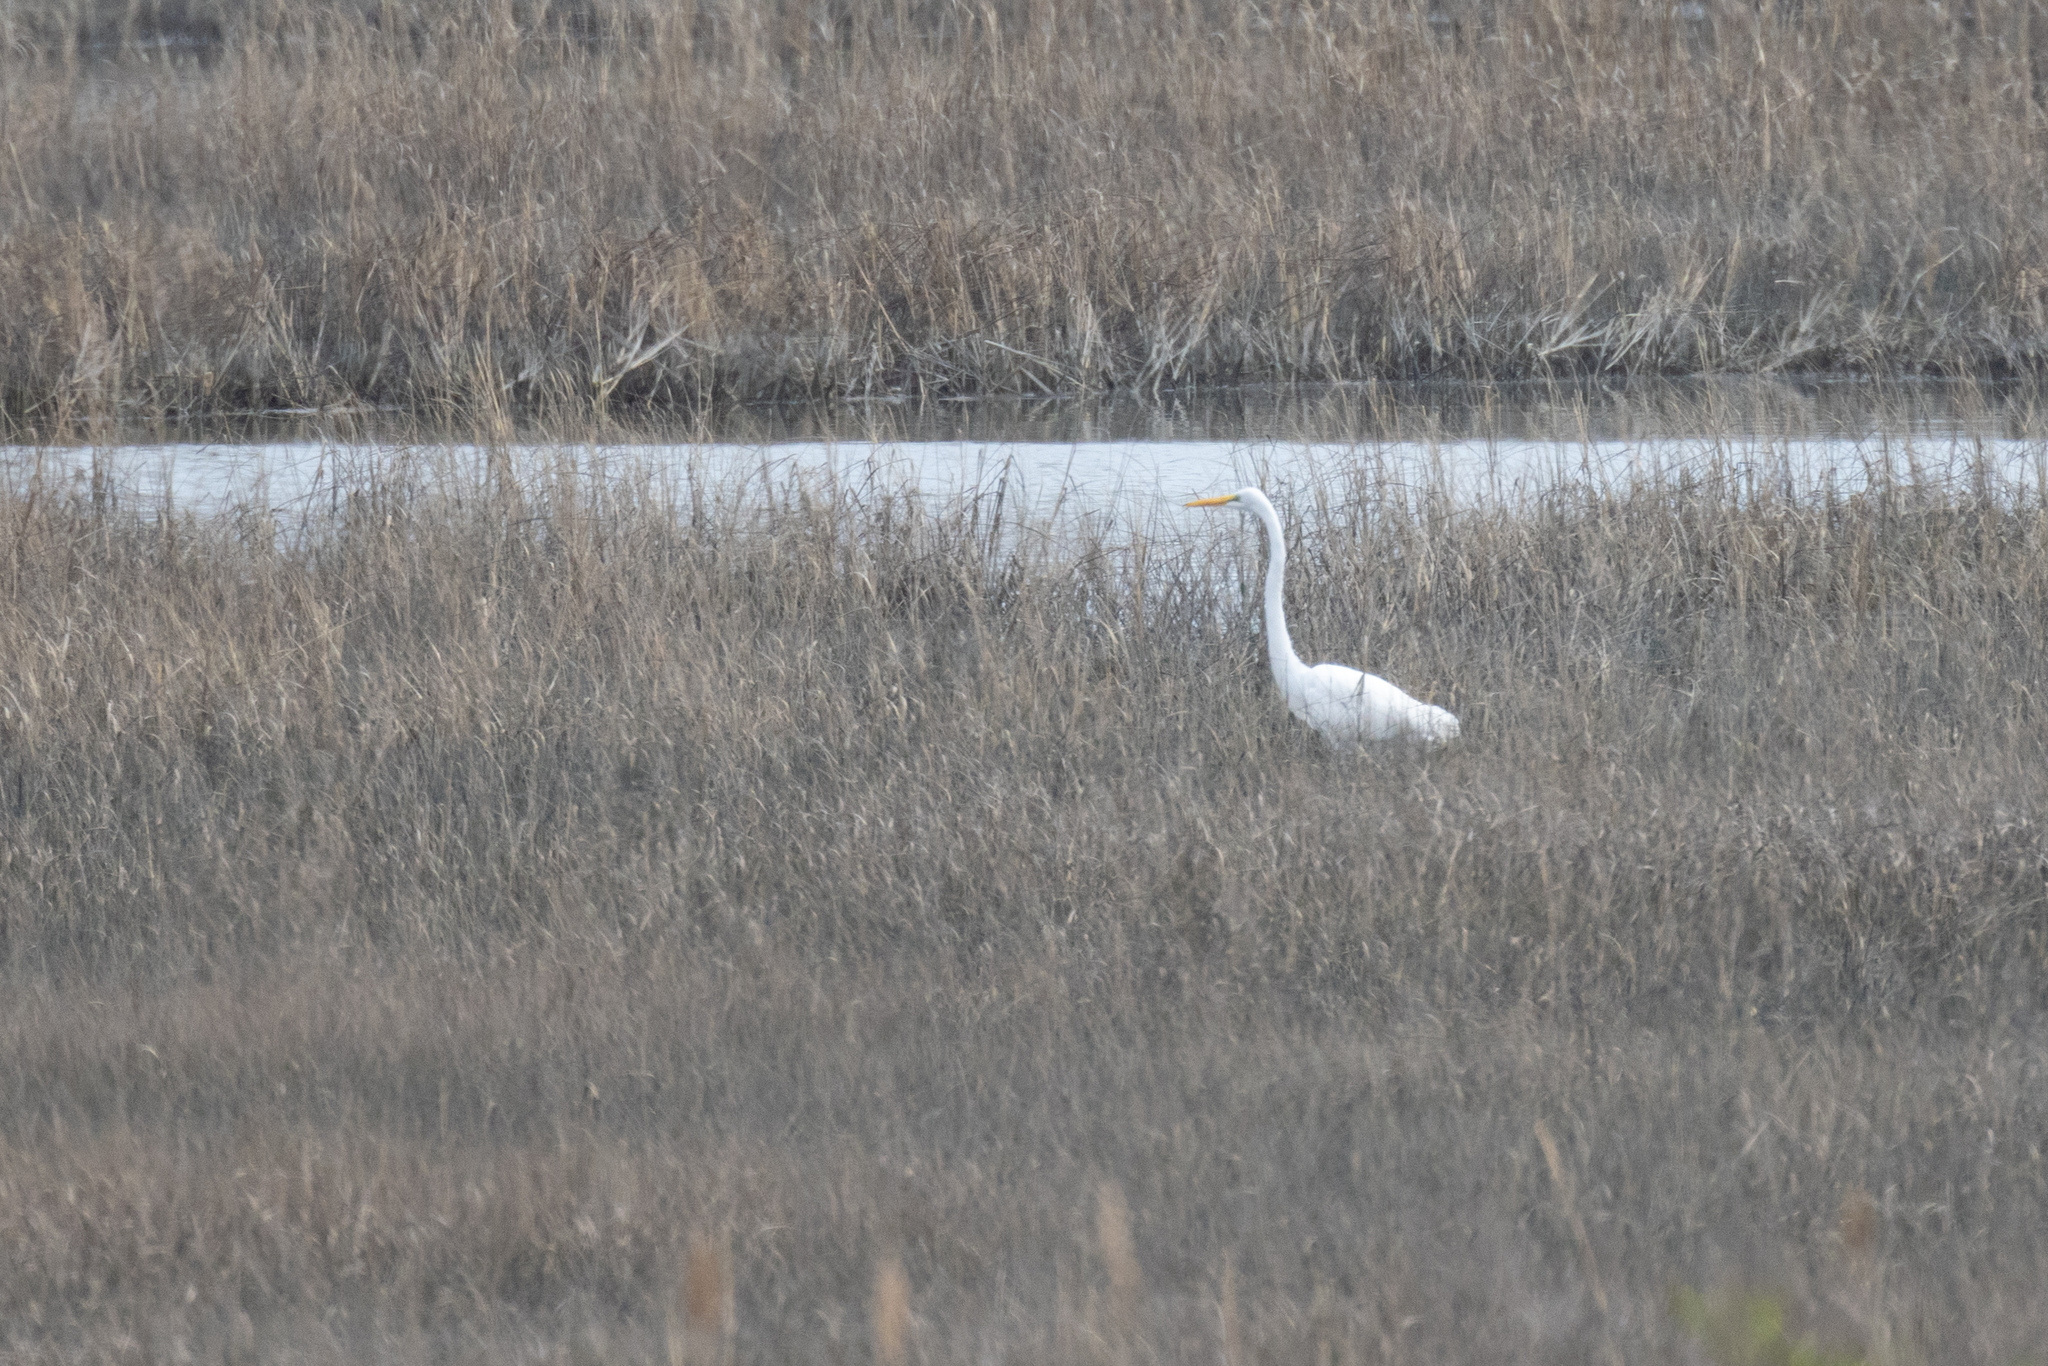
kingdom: Animalia
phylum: Chordata
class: Aves
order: Pelecaniformes
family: Ardeidae
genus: Ardea
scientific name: Ardea alba
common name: Great egret
